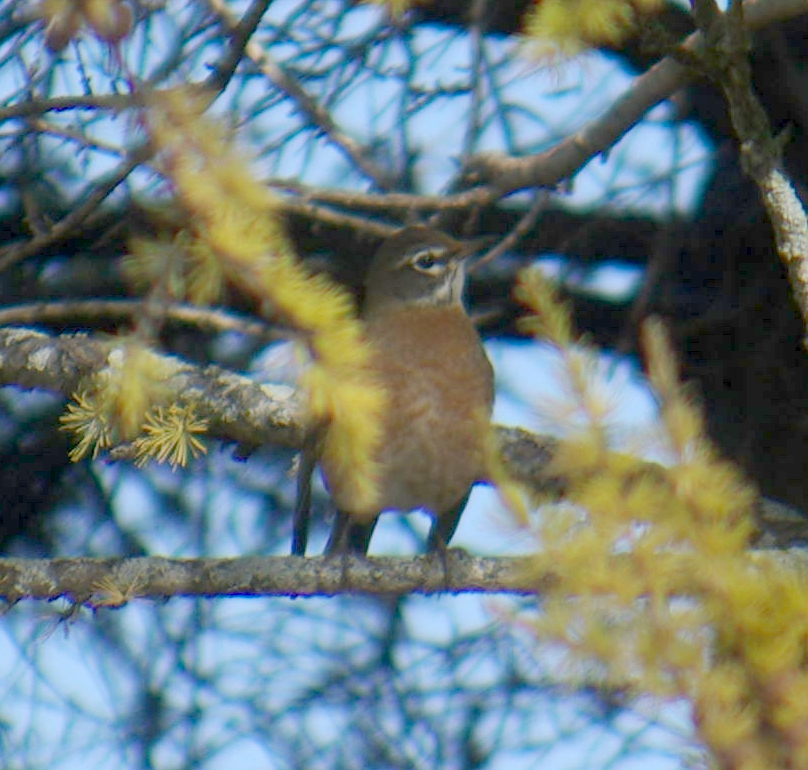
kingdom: Animalia
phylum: Chordata
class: Aves
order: Passeriformes
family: Turdidae
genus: Turdus
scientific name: Turdus migratorius
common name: American robin
